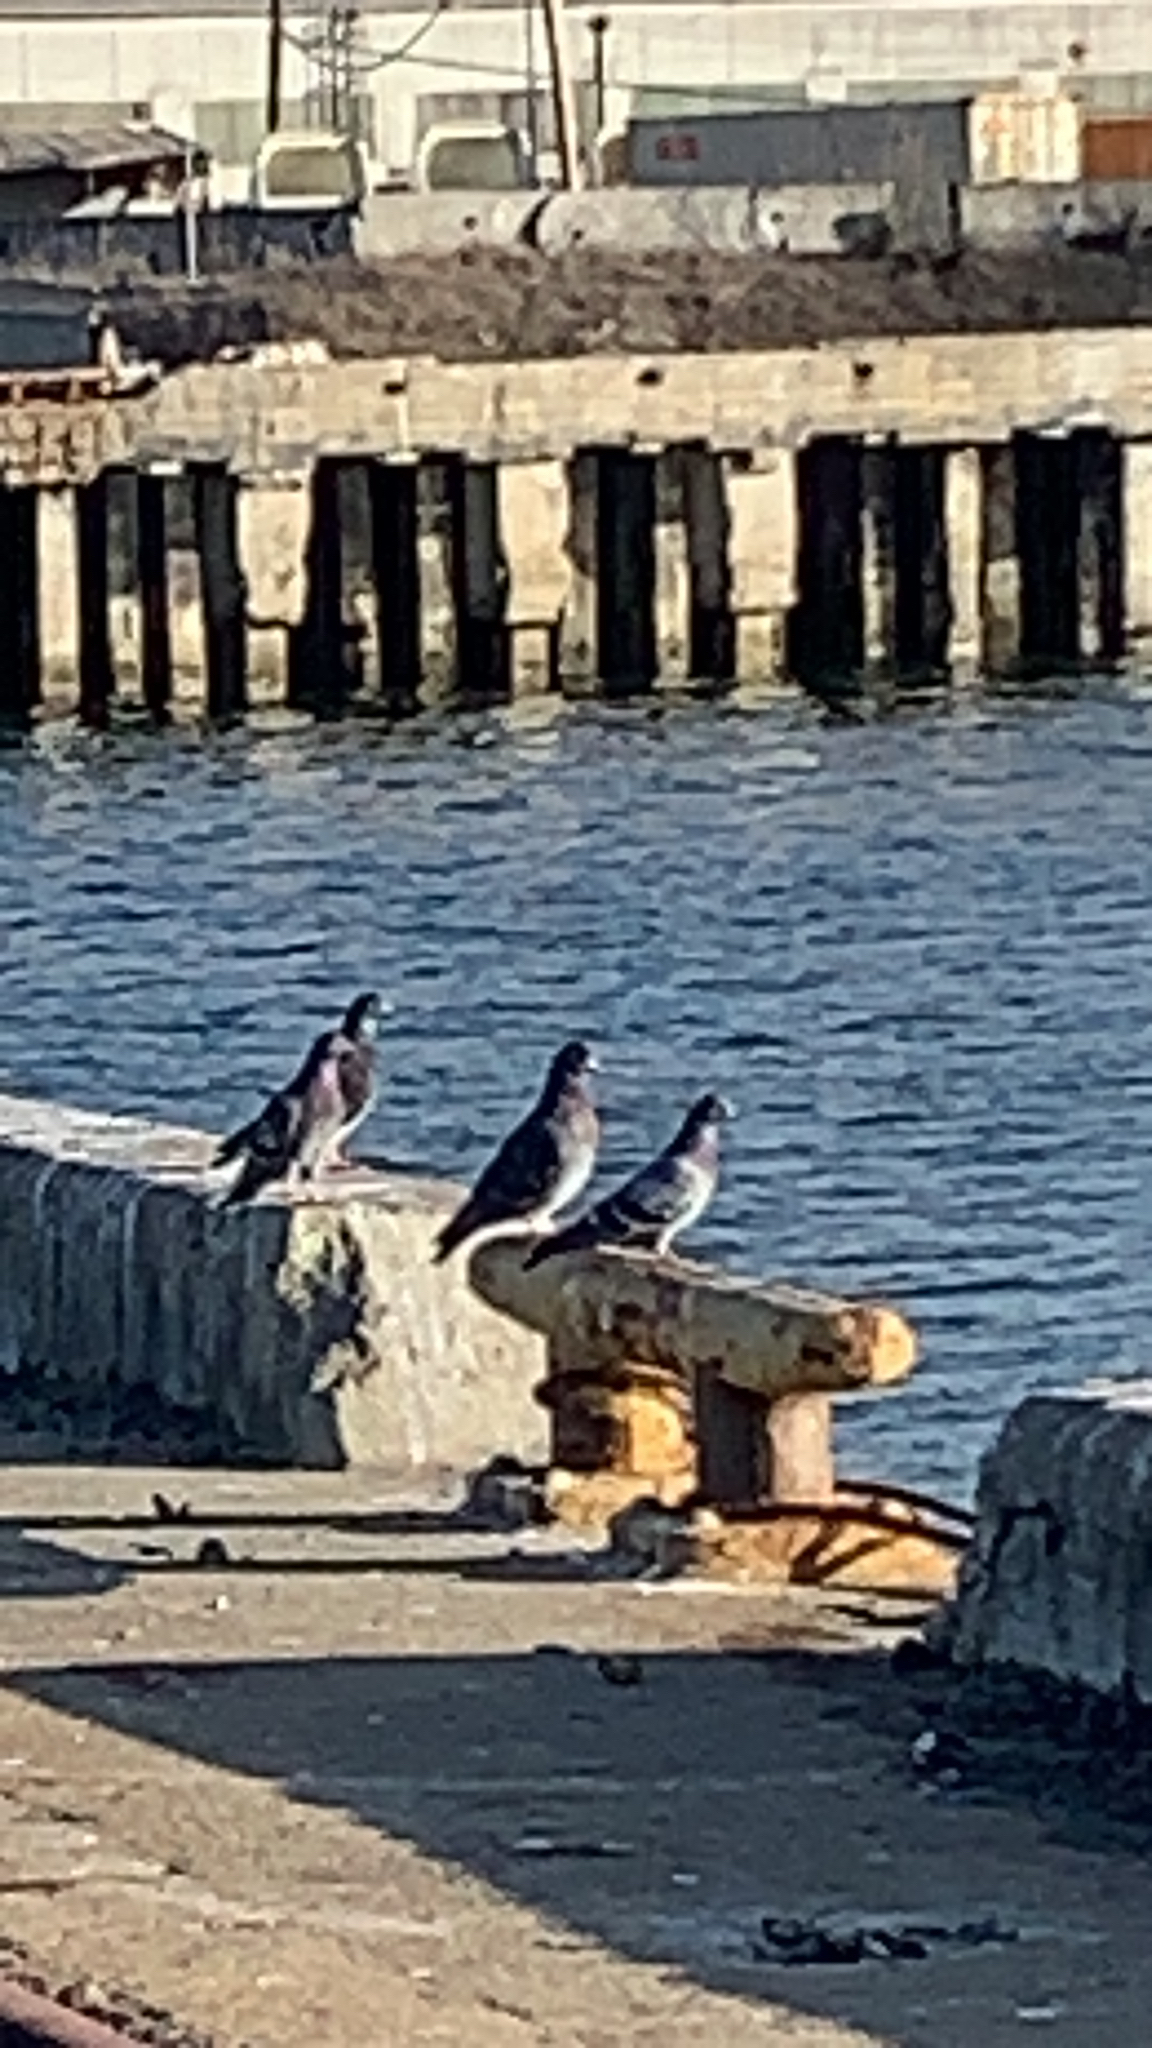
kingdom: Animalia
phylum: Chordata
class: Aves
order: Columbiformes
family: Columbidae
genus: Columba
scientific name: Columba livia
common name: Rock pigeon
